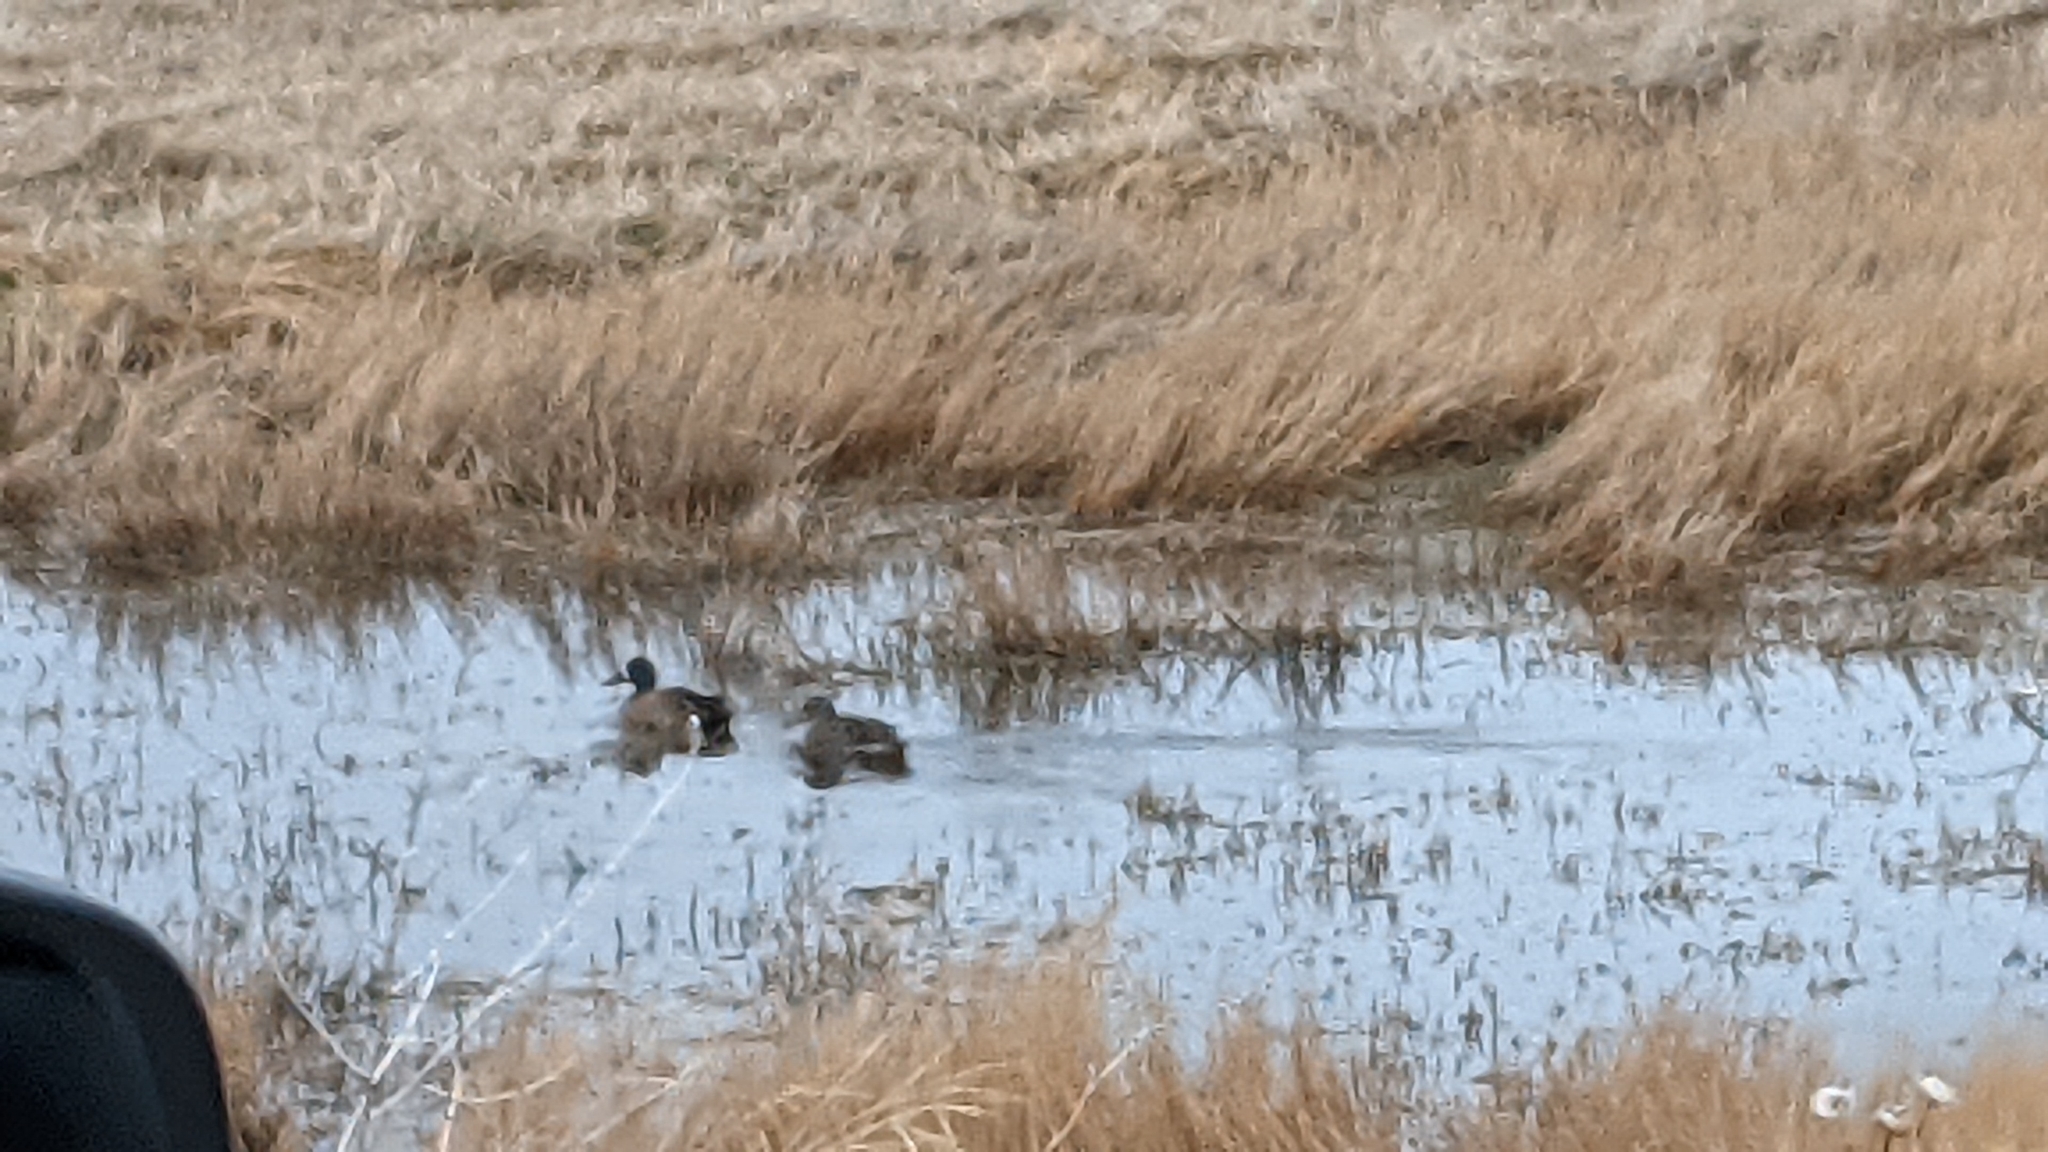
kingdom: Animalia
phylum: Chordata
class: Aves
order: Anseriformes
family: Anatidae
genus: Spatula
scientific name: Spatula discors
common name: Blue-winged teal
